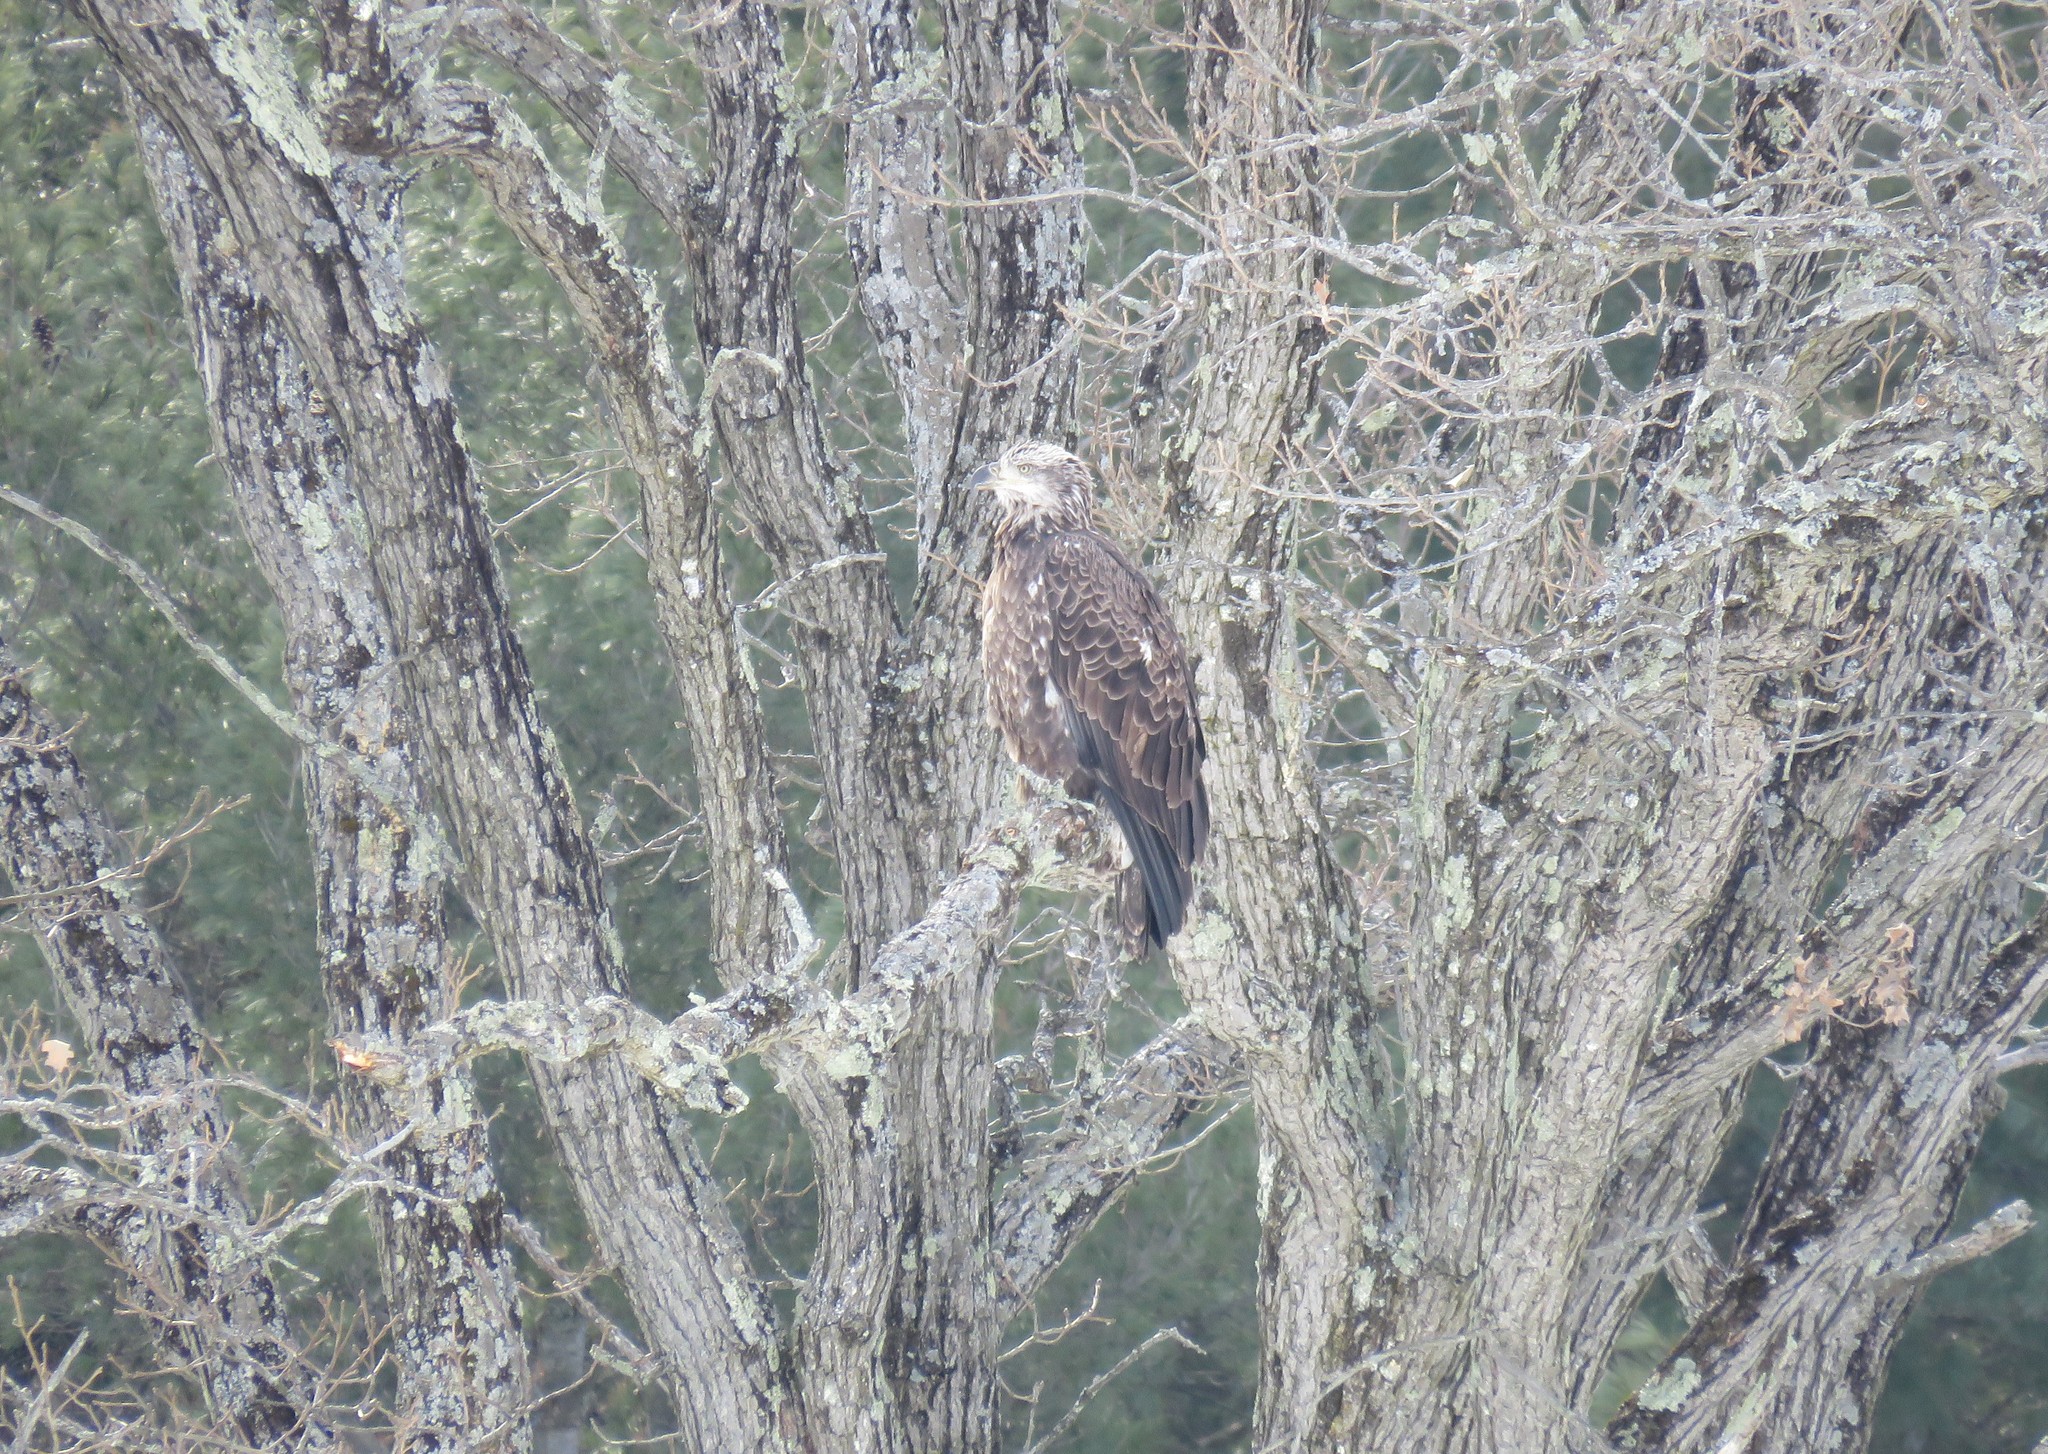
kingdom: Animalia
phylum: Chordata
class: Aves
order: Accipitriformes
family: Accipitridae
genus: Haliaeetus
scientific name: Haliaeetus leucocephalus
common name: Bald eagle
